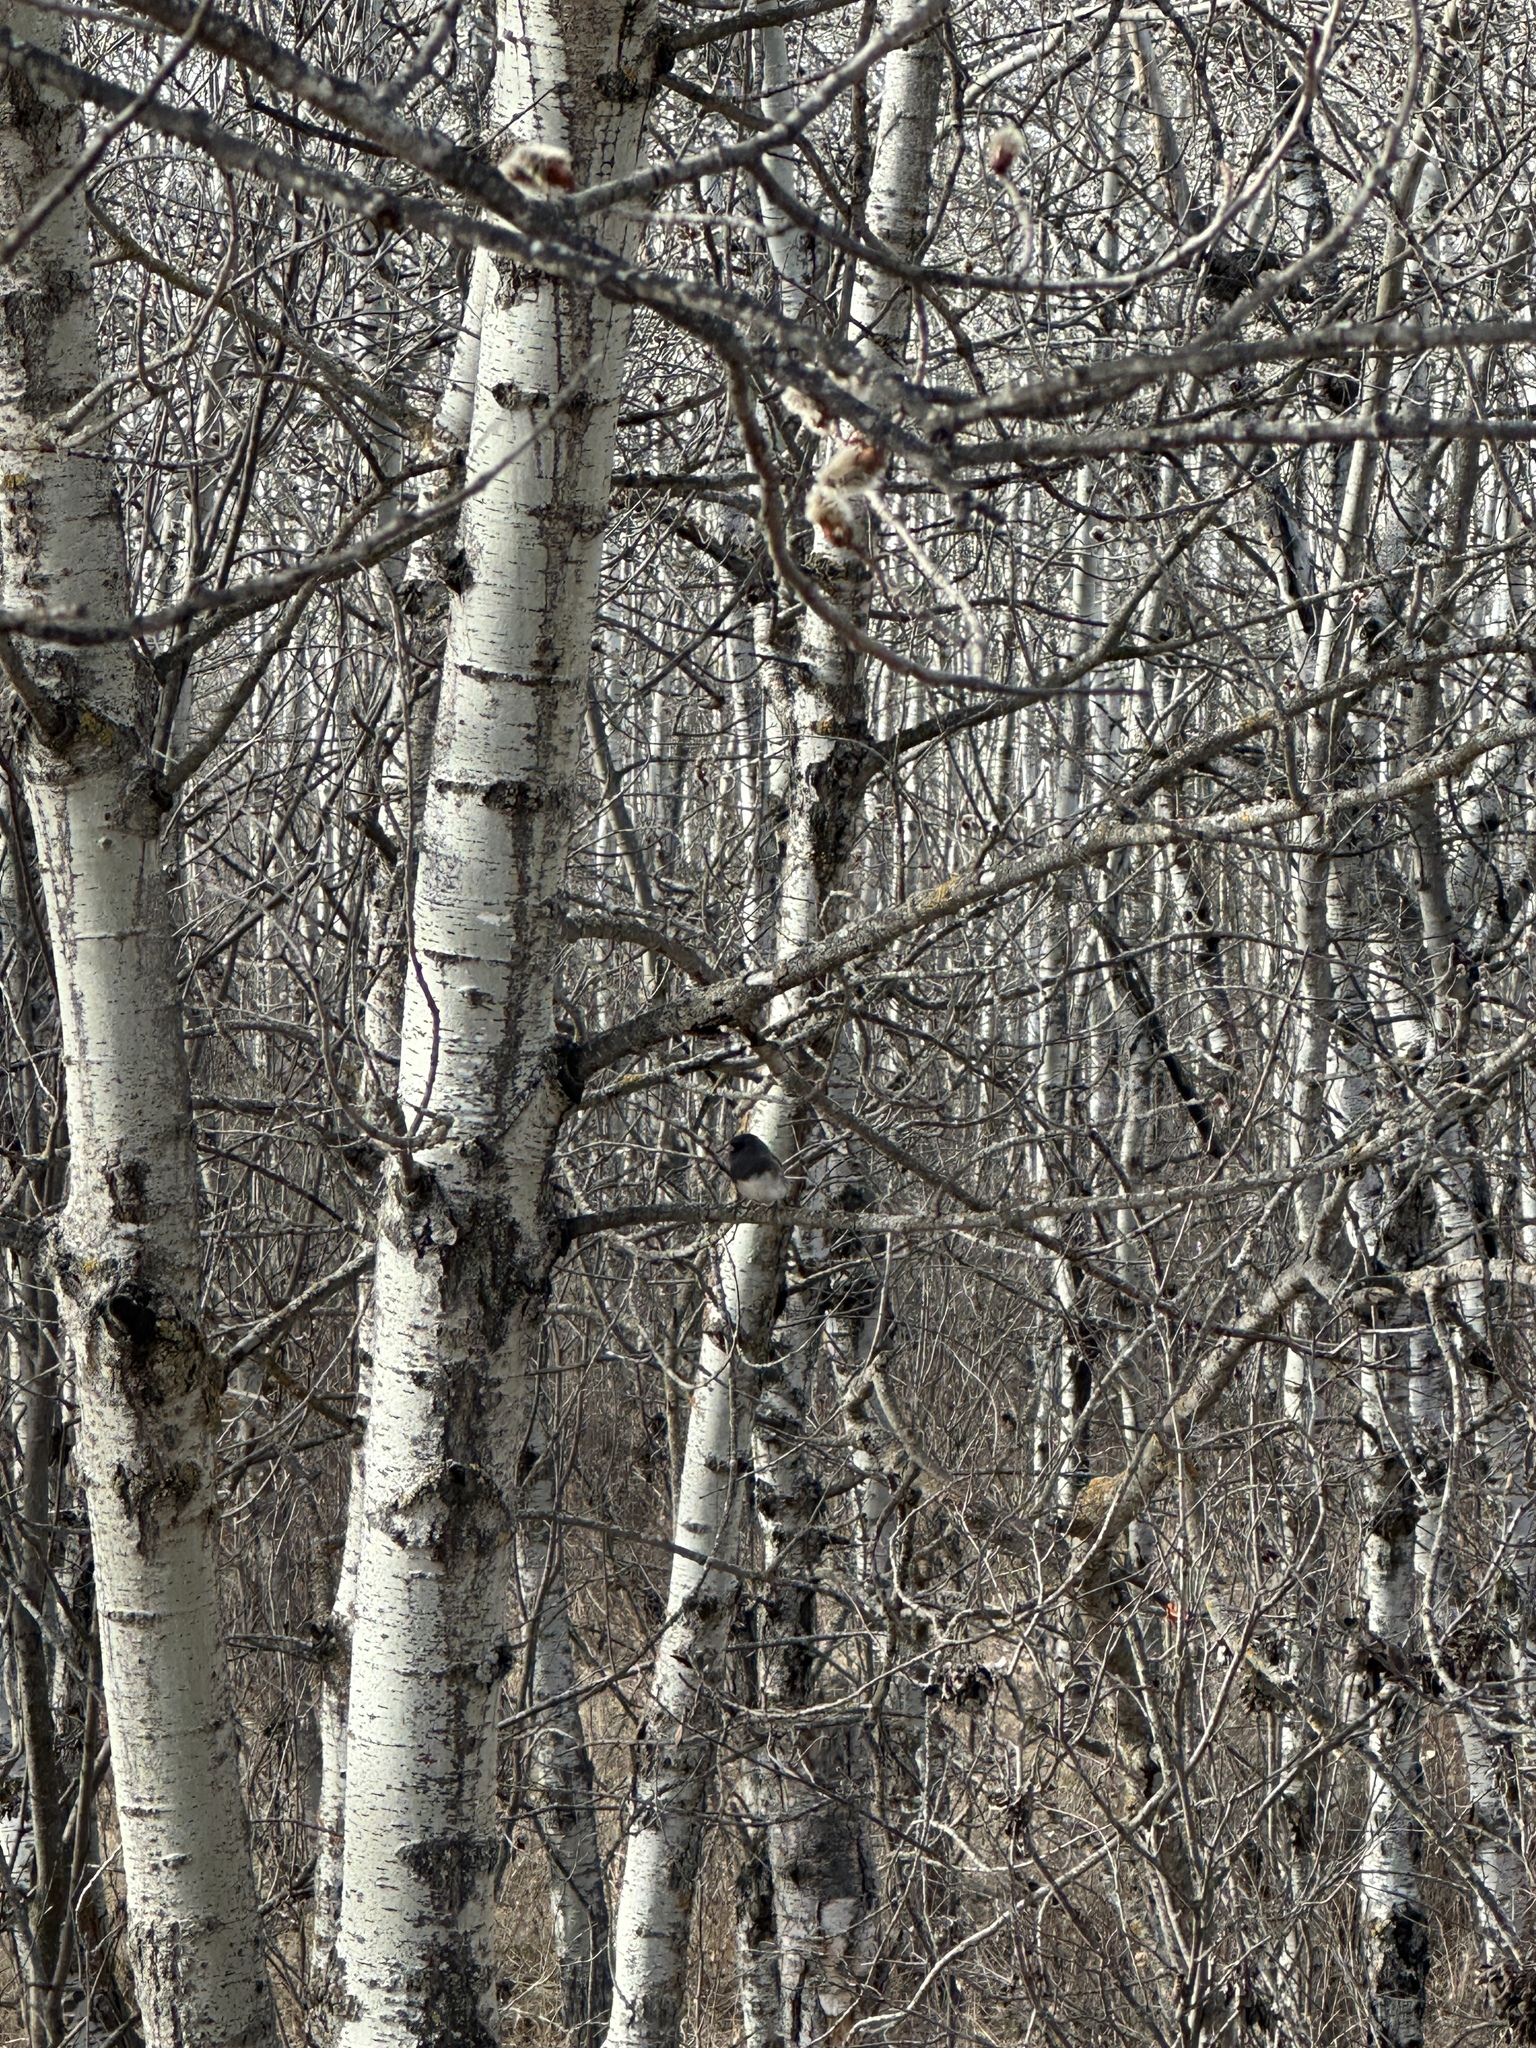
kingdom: Animalia
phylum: Chordata
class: Aves
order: Passeriformes
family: Passerellidae
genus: Junco
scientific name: Junco hyemalis
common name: Dark-eyed junco
